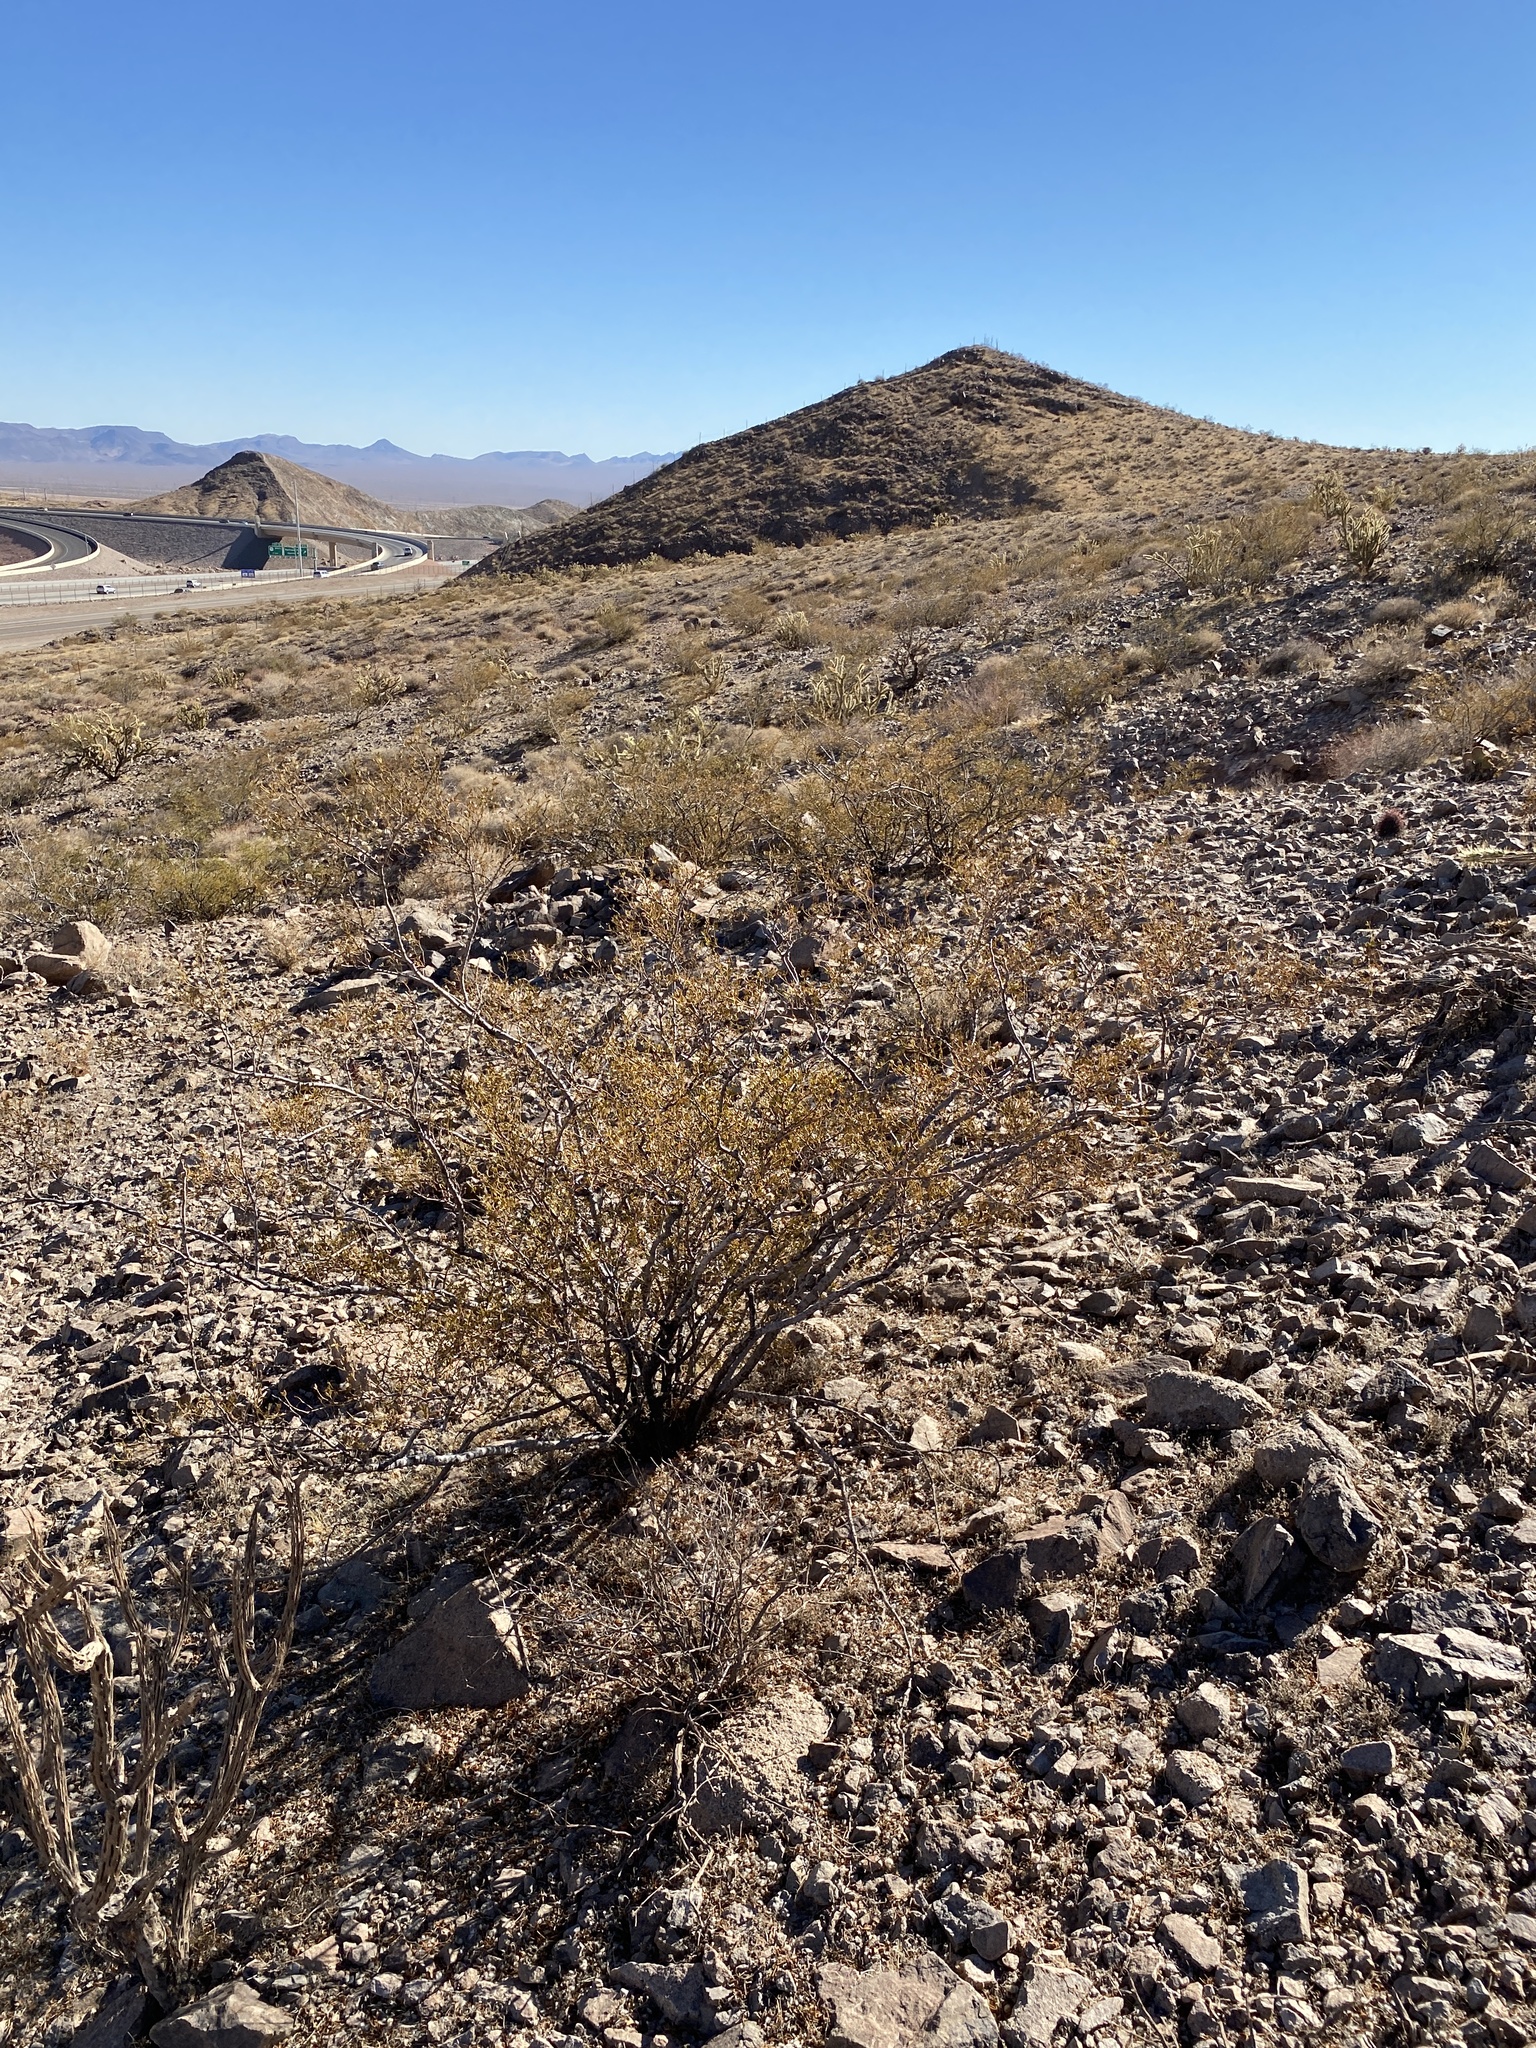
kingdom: Plantae
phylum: Tracheophyta
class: Magnoliopsida
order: Zygophyllales
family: Zygophyllaceae
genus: Larrea
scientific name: Larrea tridentata
